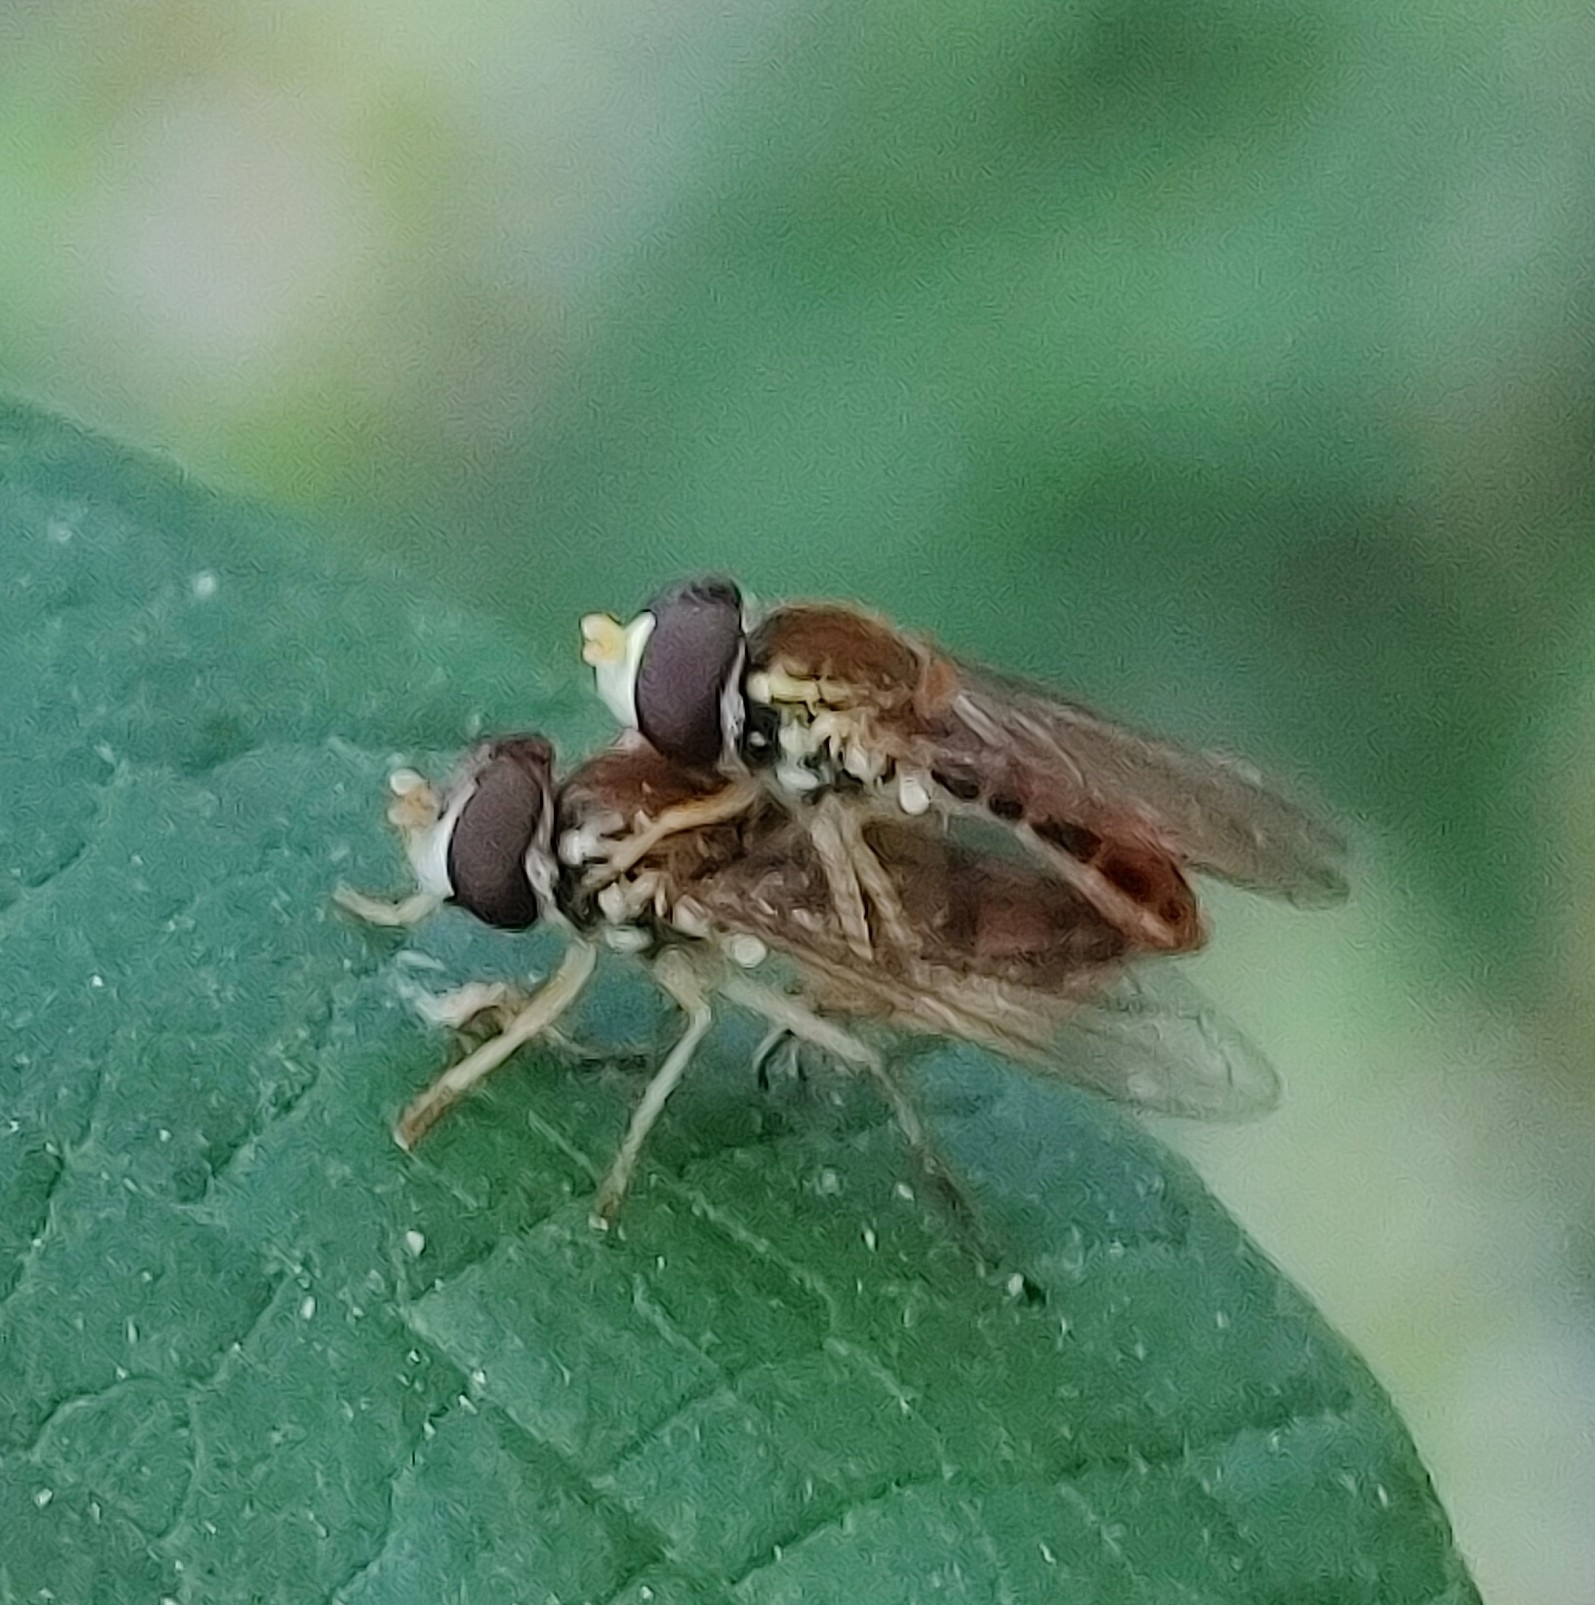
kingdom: Animalia
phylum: Arthropoda
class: Insecta
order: Diptera
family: Syrphidae
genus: Toxomerus
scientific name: Toxomerus marginatus
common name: Syrphid fly
